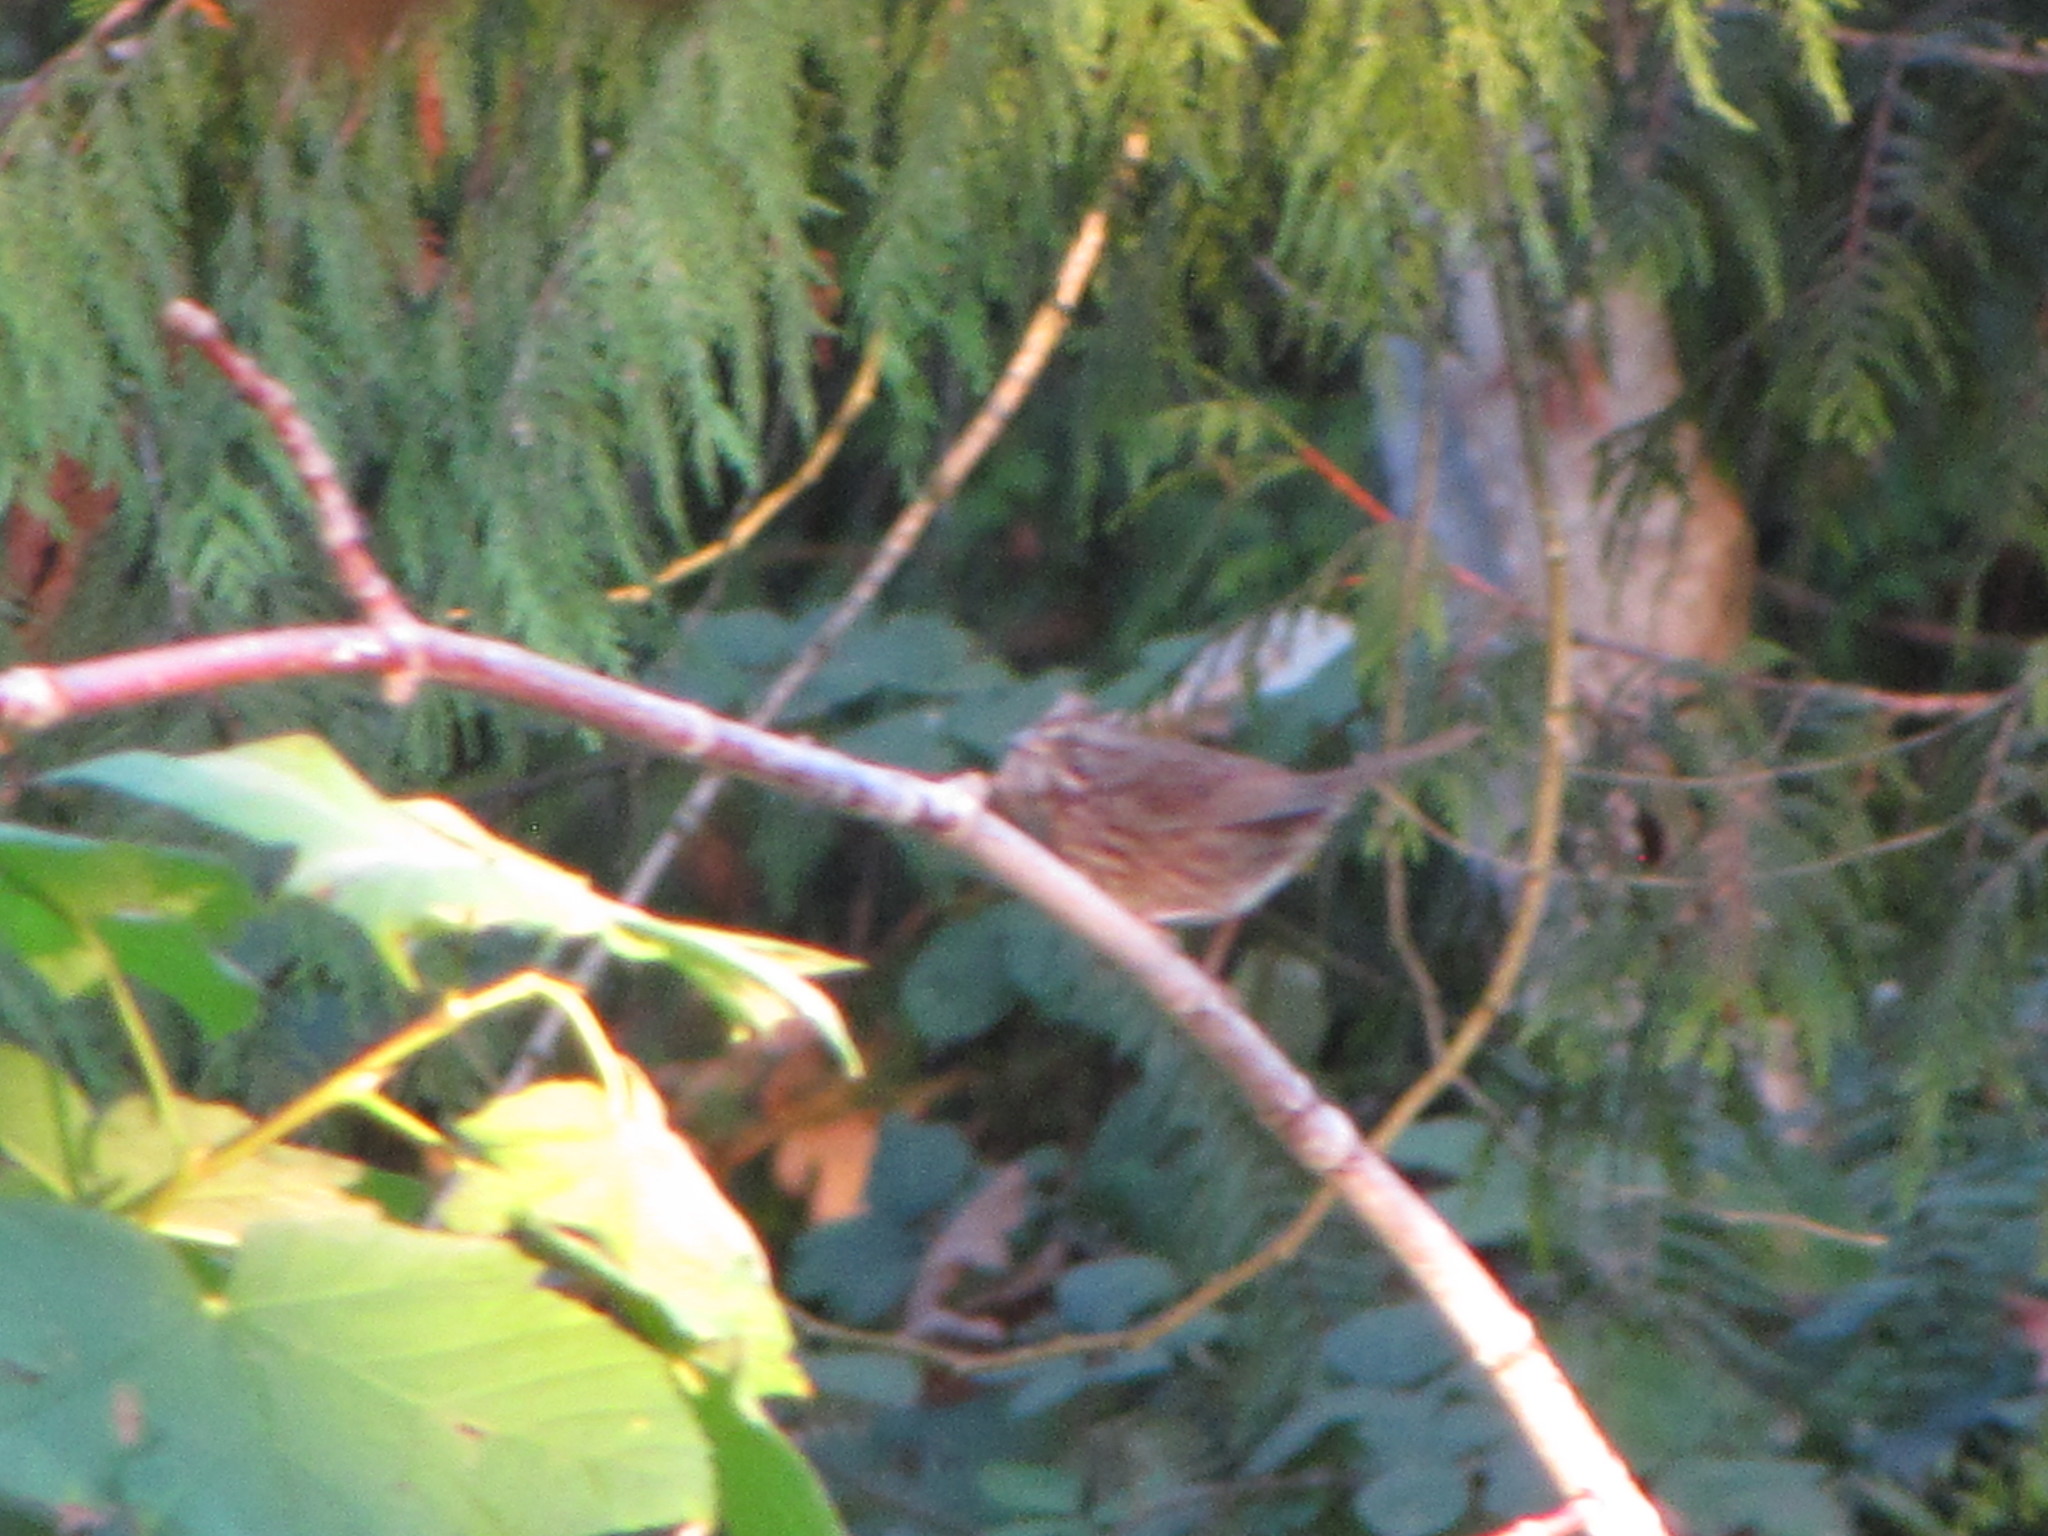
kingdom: Animalia
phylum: Chordata
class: Aves
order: Passeriformes
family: Passerellidae
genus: Melospiza
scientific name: Melospiza melodia
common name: Song sparrow
